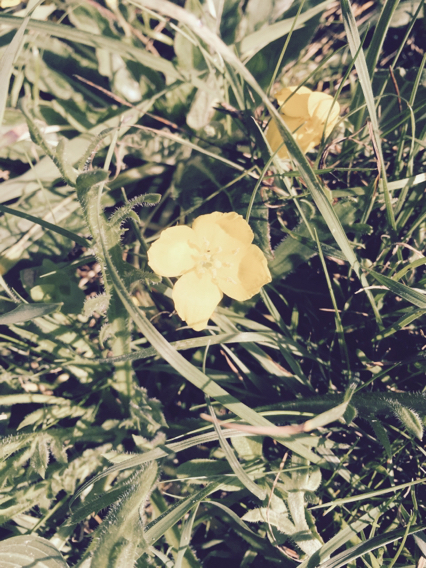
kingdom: Plantae
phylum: Tracheophyta
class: Magnoliopsida
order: Myrtales
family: Onagraceae
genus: Taraxia
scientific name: Taraxia ovata
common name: Goldeneggs
